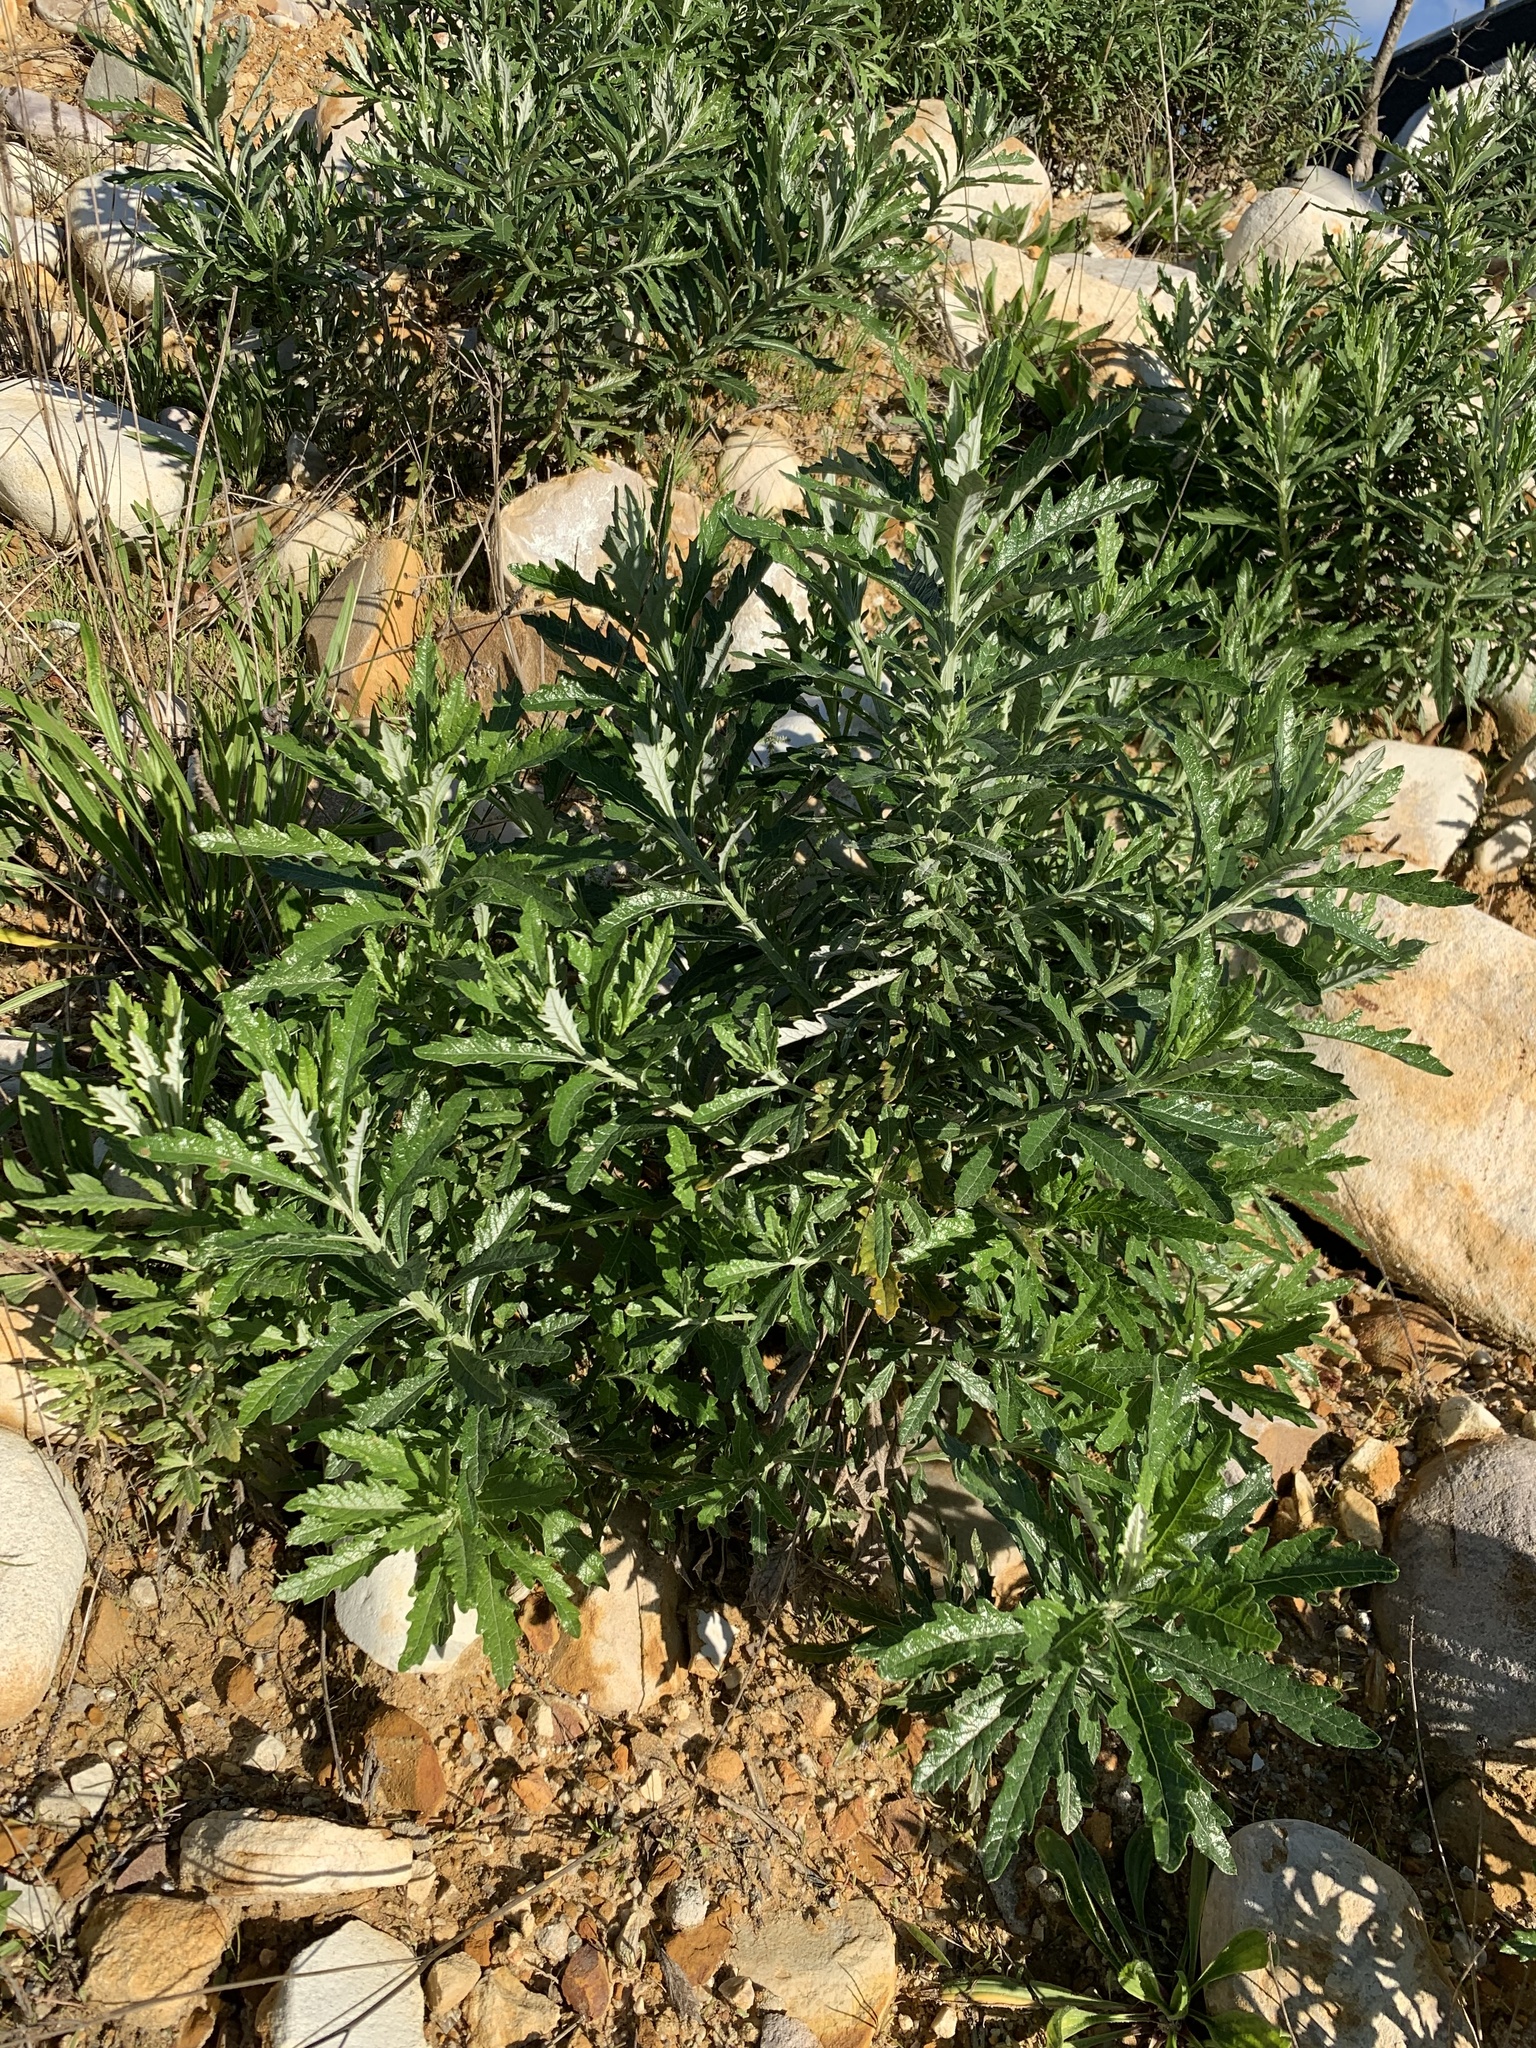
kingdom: Plantae
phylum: Tracheophyta
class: Magnoliopsida
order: Asterales
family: Asteraceae
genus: Senecio
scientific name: Senecio pterophorus
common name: Shoddy ragwort
